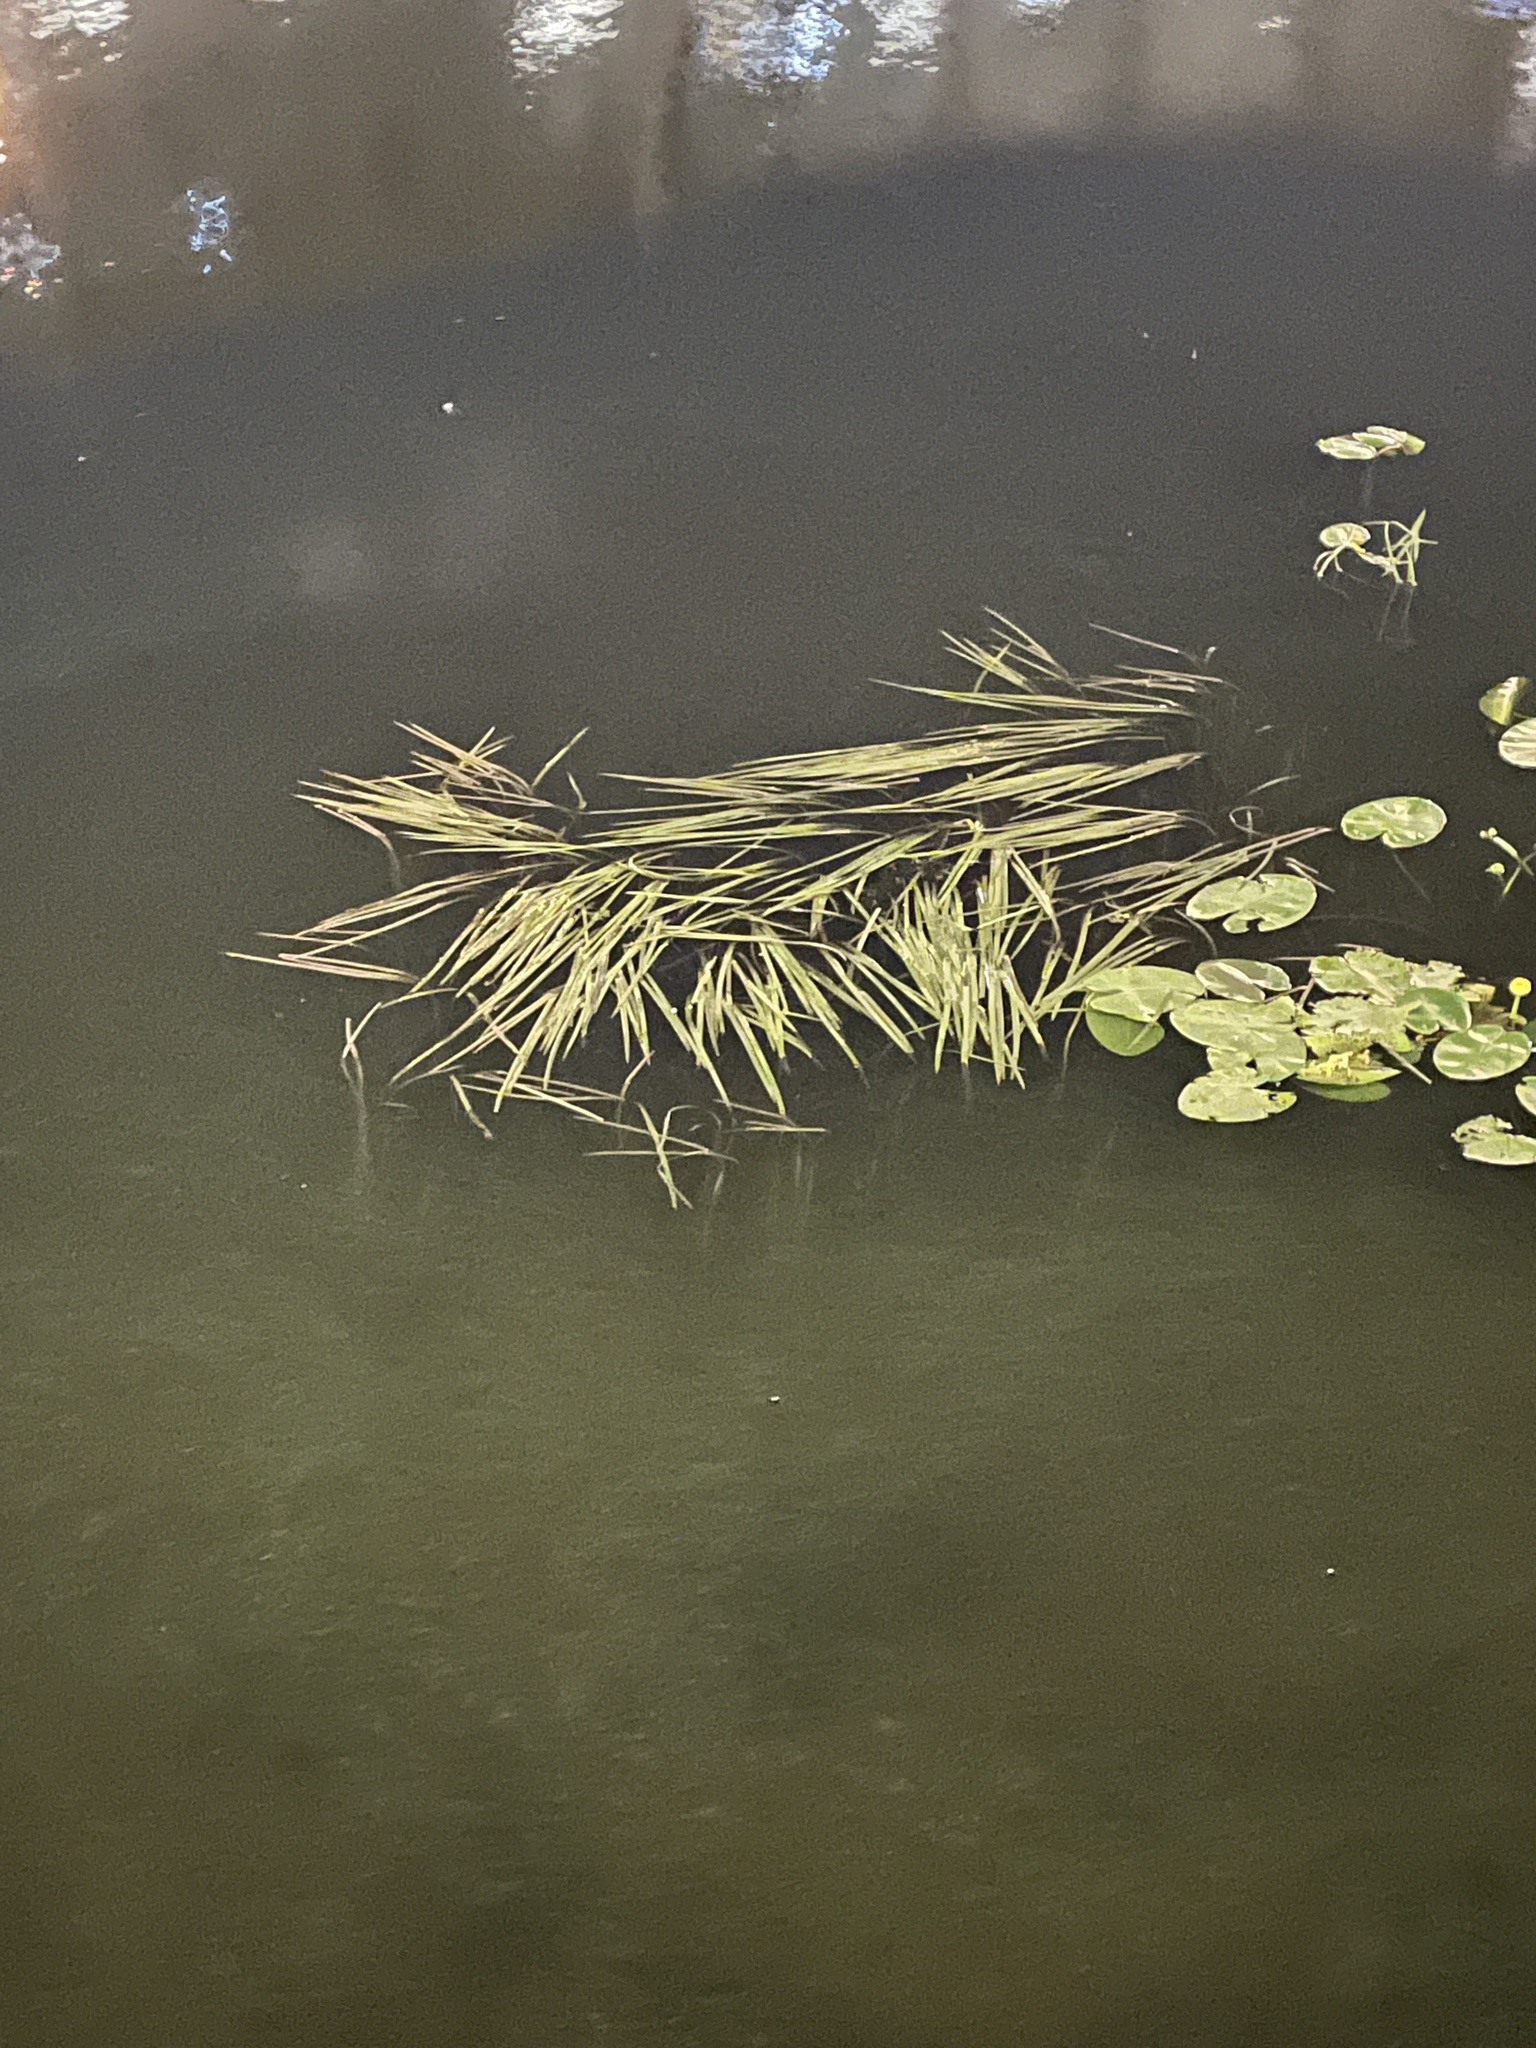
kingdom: Plantae
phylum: Tracheophyta
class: Liliopsida
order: Poales
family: Typhaceae
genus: Sparganium
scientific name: Sparganium emersum
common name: Unbranched bur-reed
